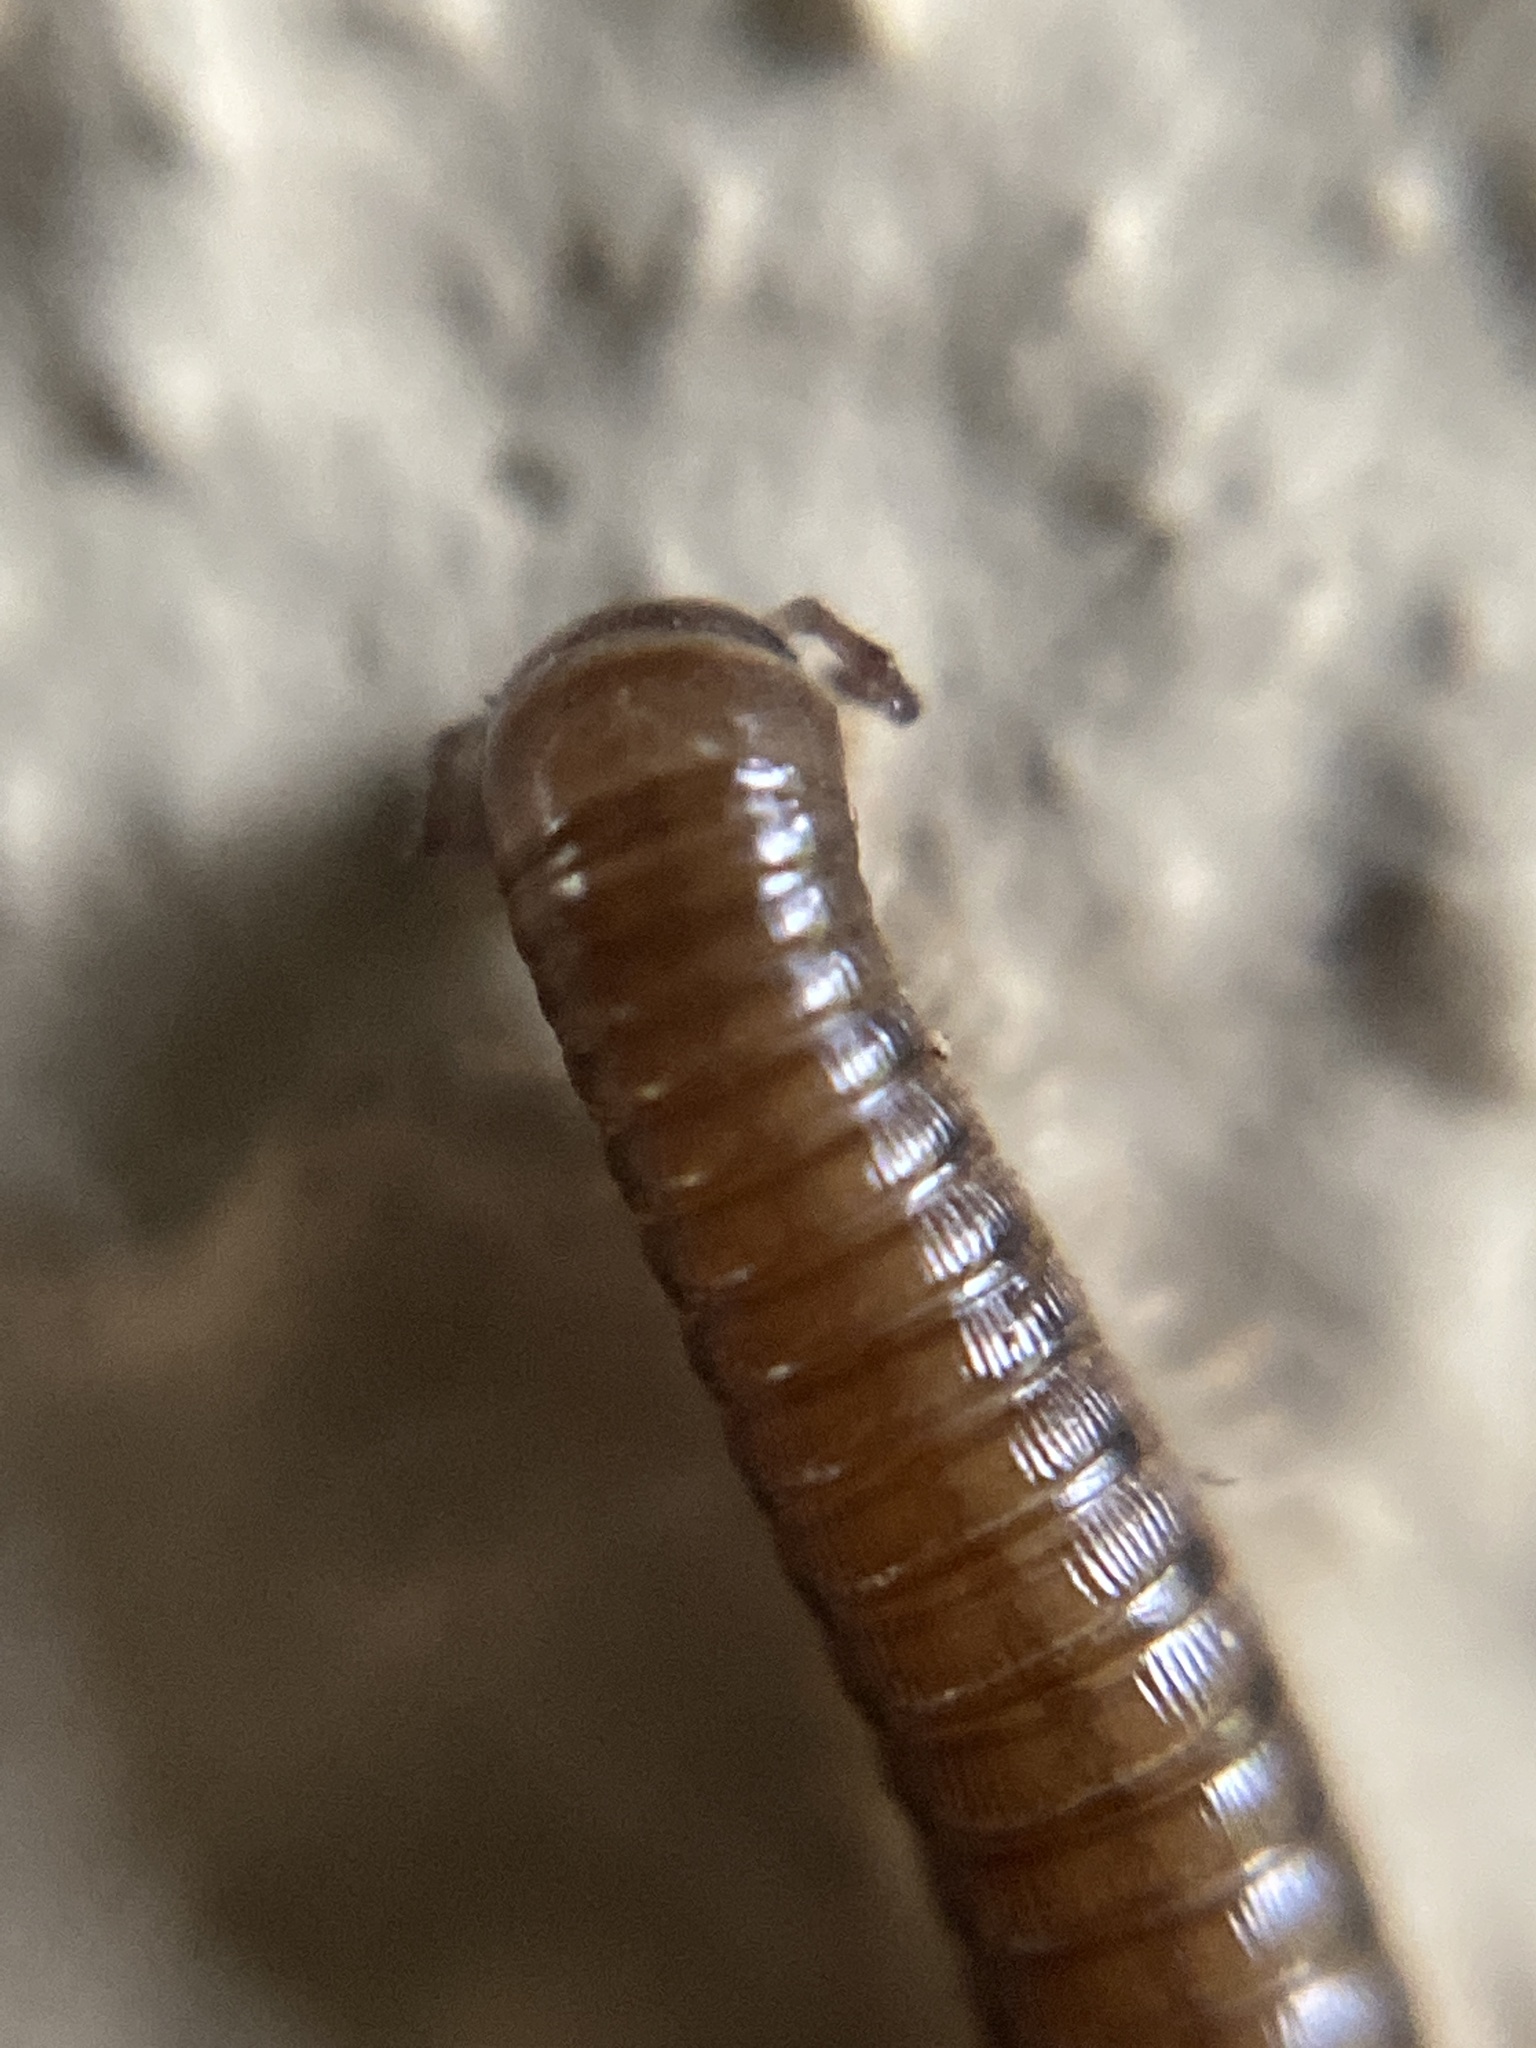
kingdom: Animalia
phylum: Arthropoda
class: Diplopoda
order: Julida
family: Julidae
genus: Cylindroiulus
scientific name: Cylindroiulus punctatus
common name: Blunt-tailed millipede
